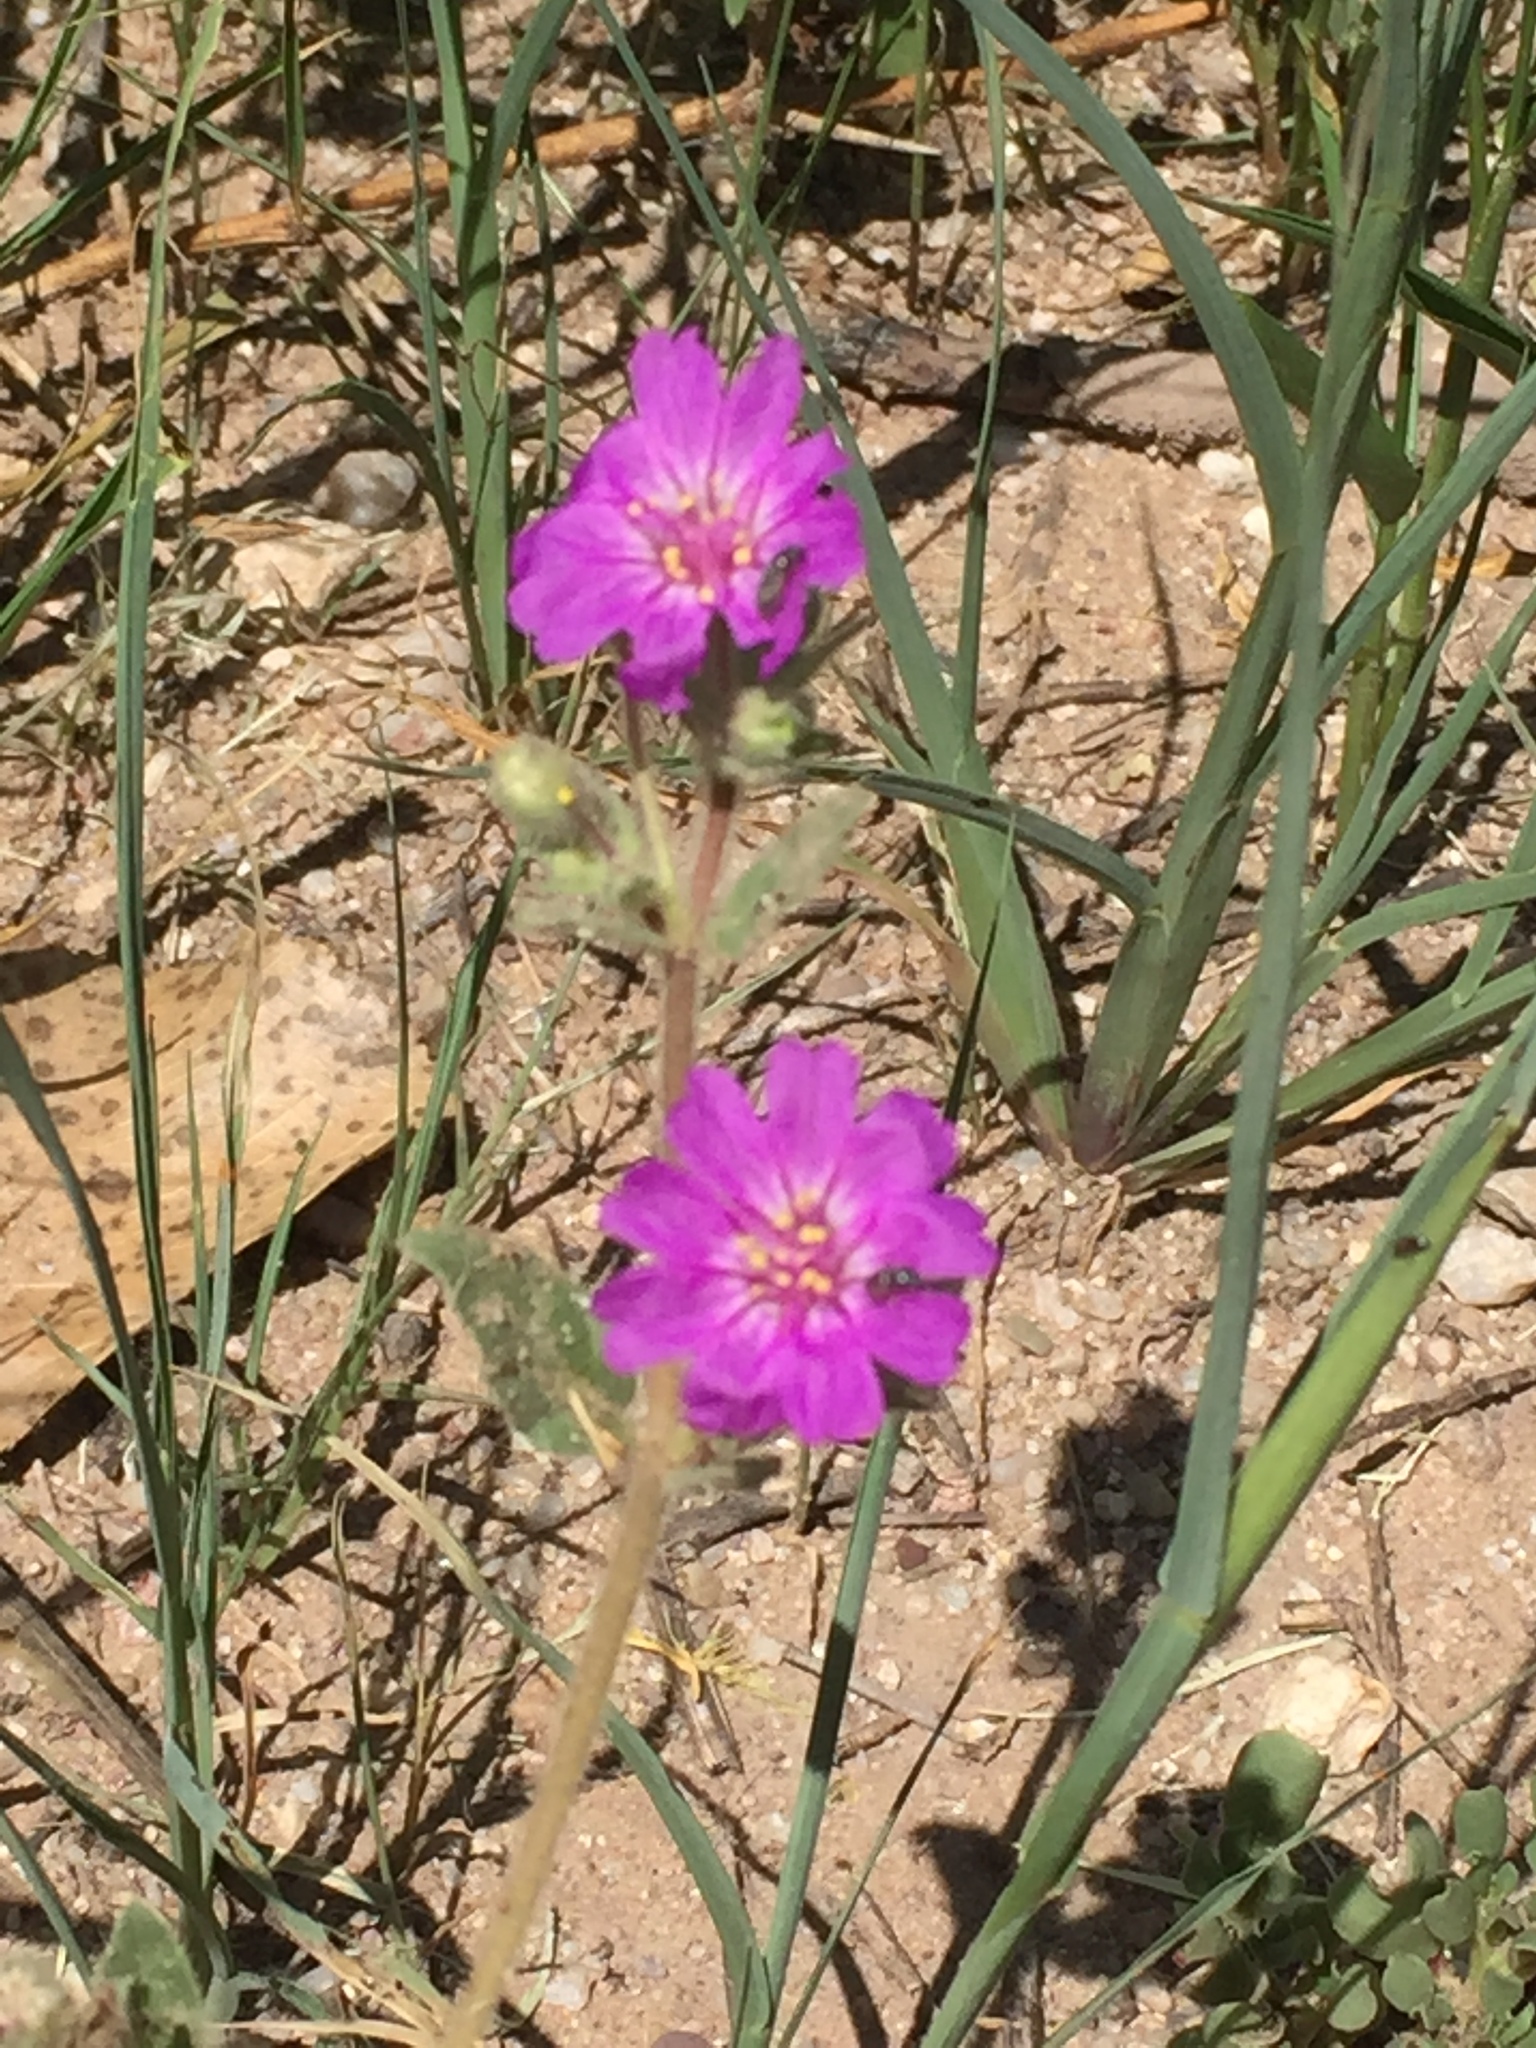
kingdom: Plantae
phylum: Tracheophyta
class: Magnoliopsida
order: Caryophyllales
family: Nyctaginaceae
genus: Allionia
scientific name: Allionia incarnata
